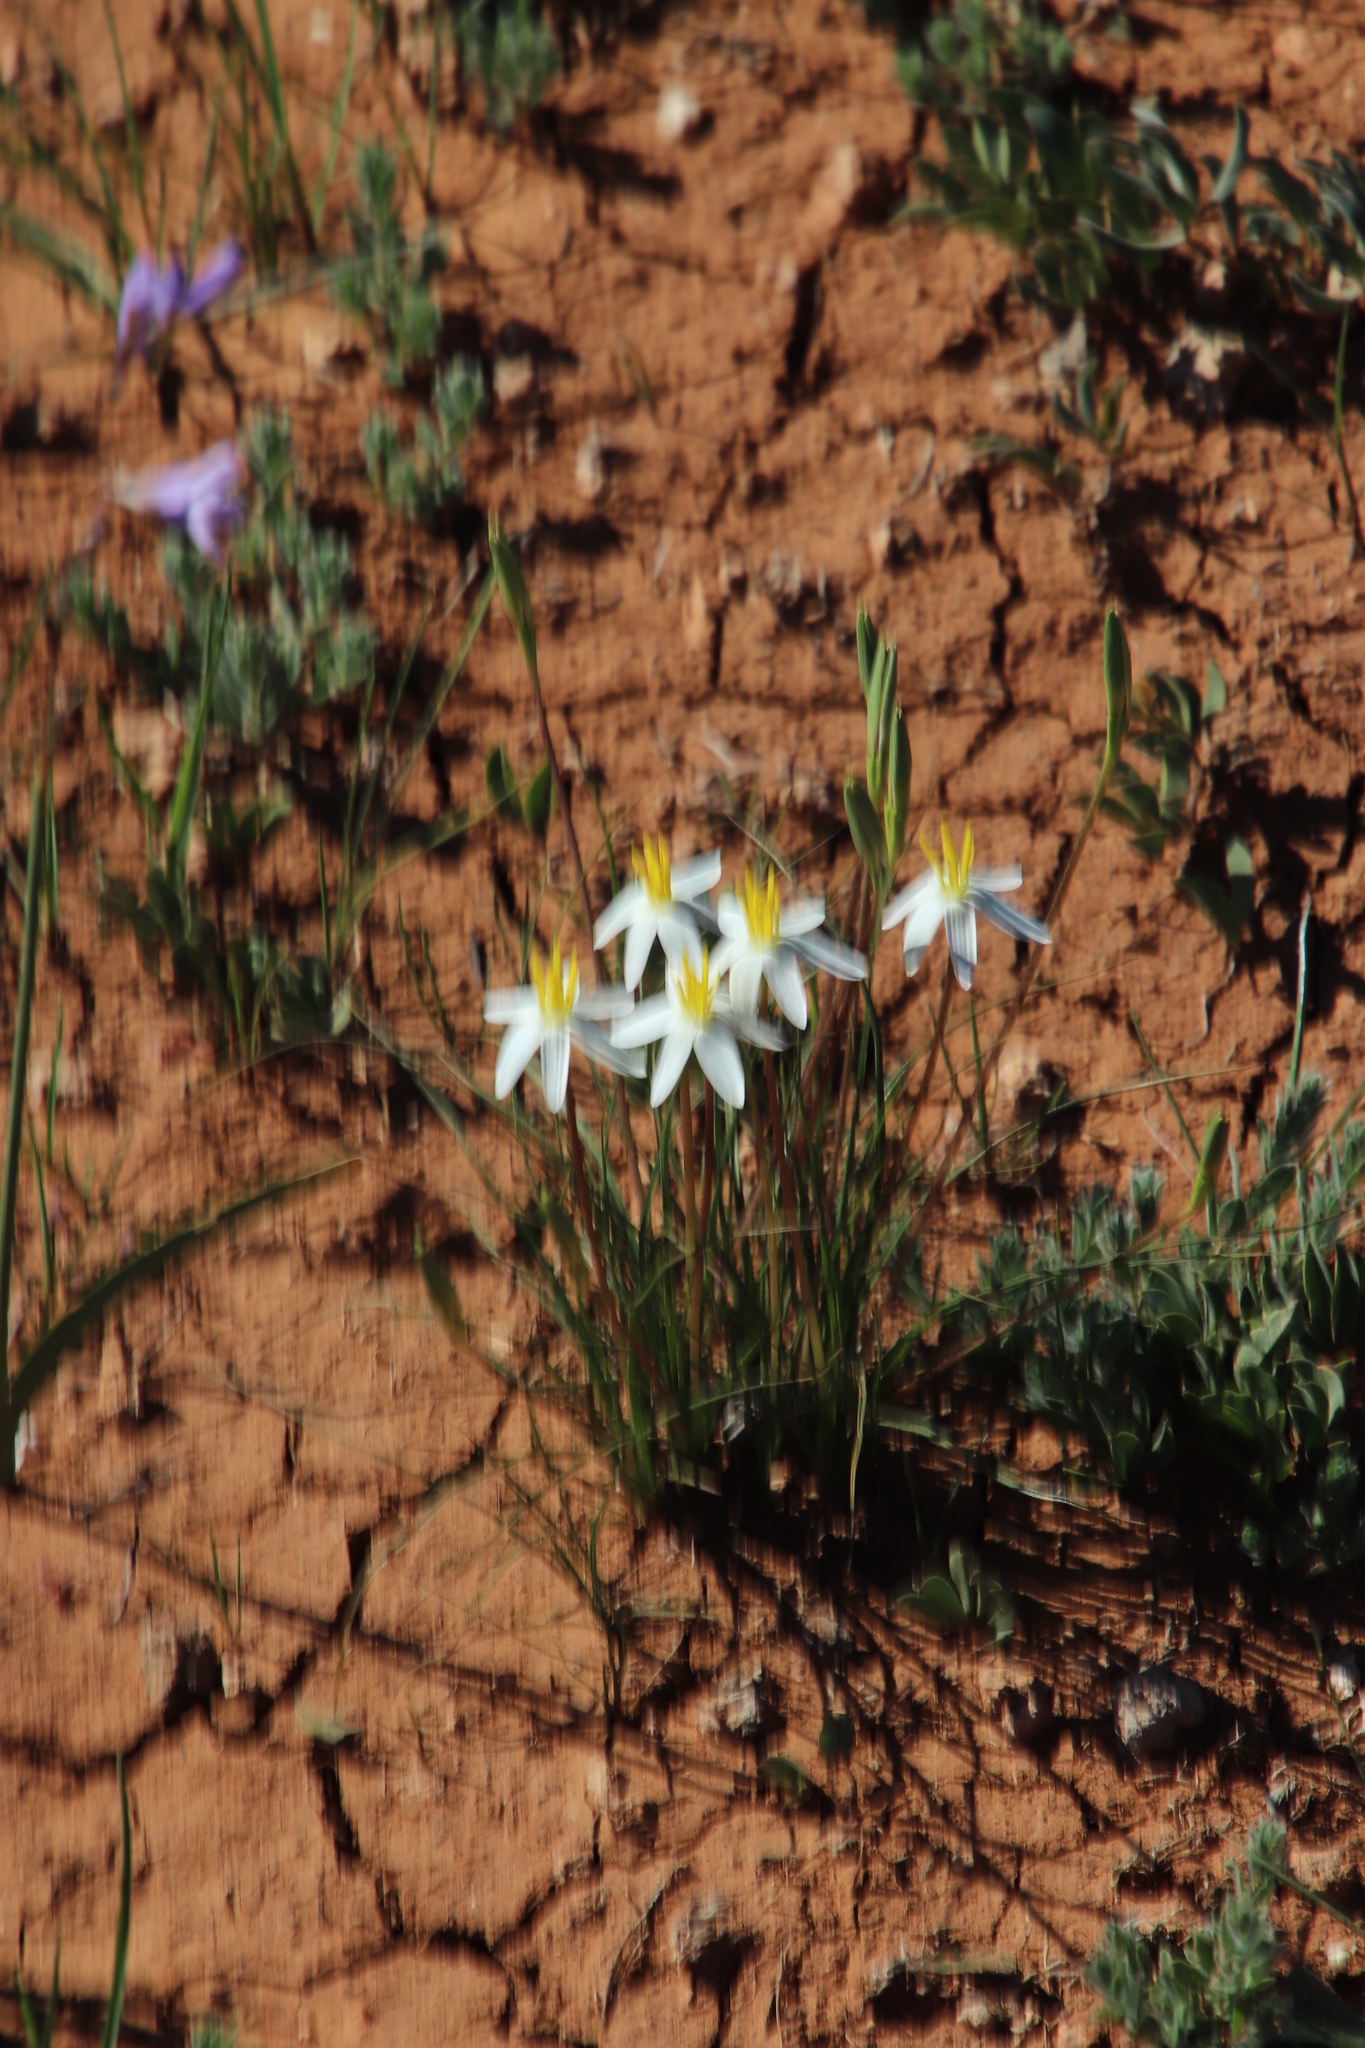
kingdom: Plantae
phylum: Tracheophyta
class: Liliopsida
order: Asparagales
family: Hypoxidaceae
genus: Pauridia
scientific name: Pauridia serrata
